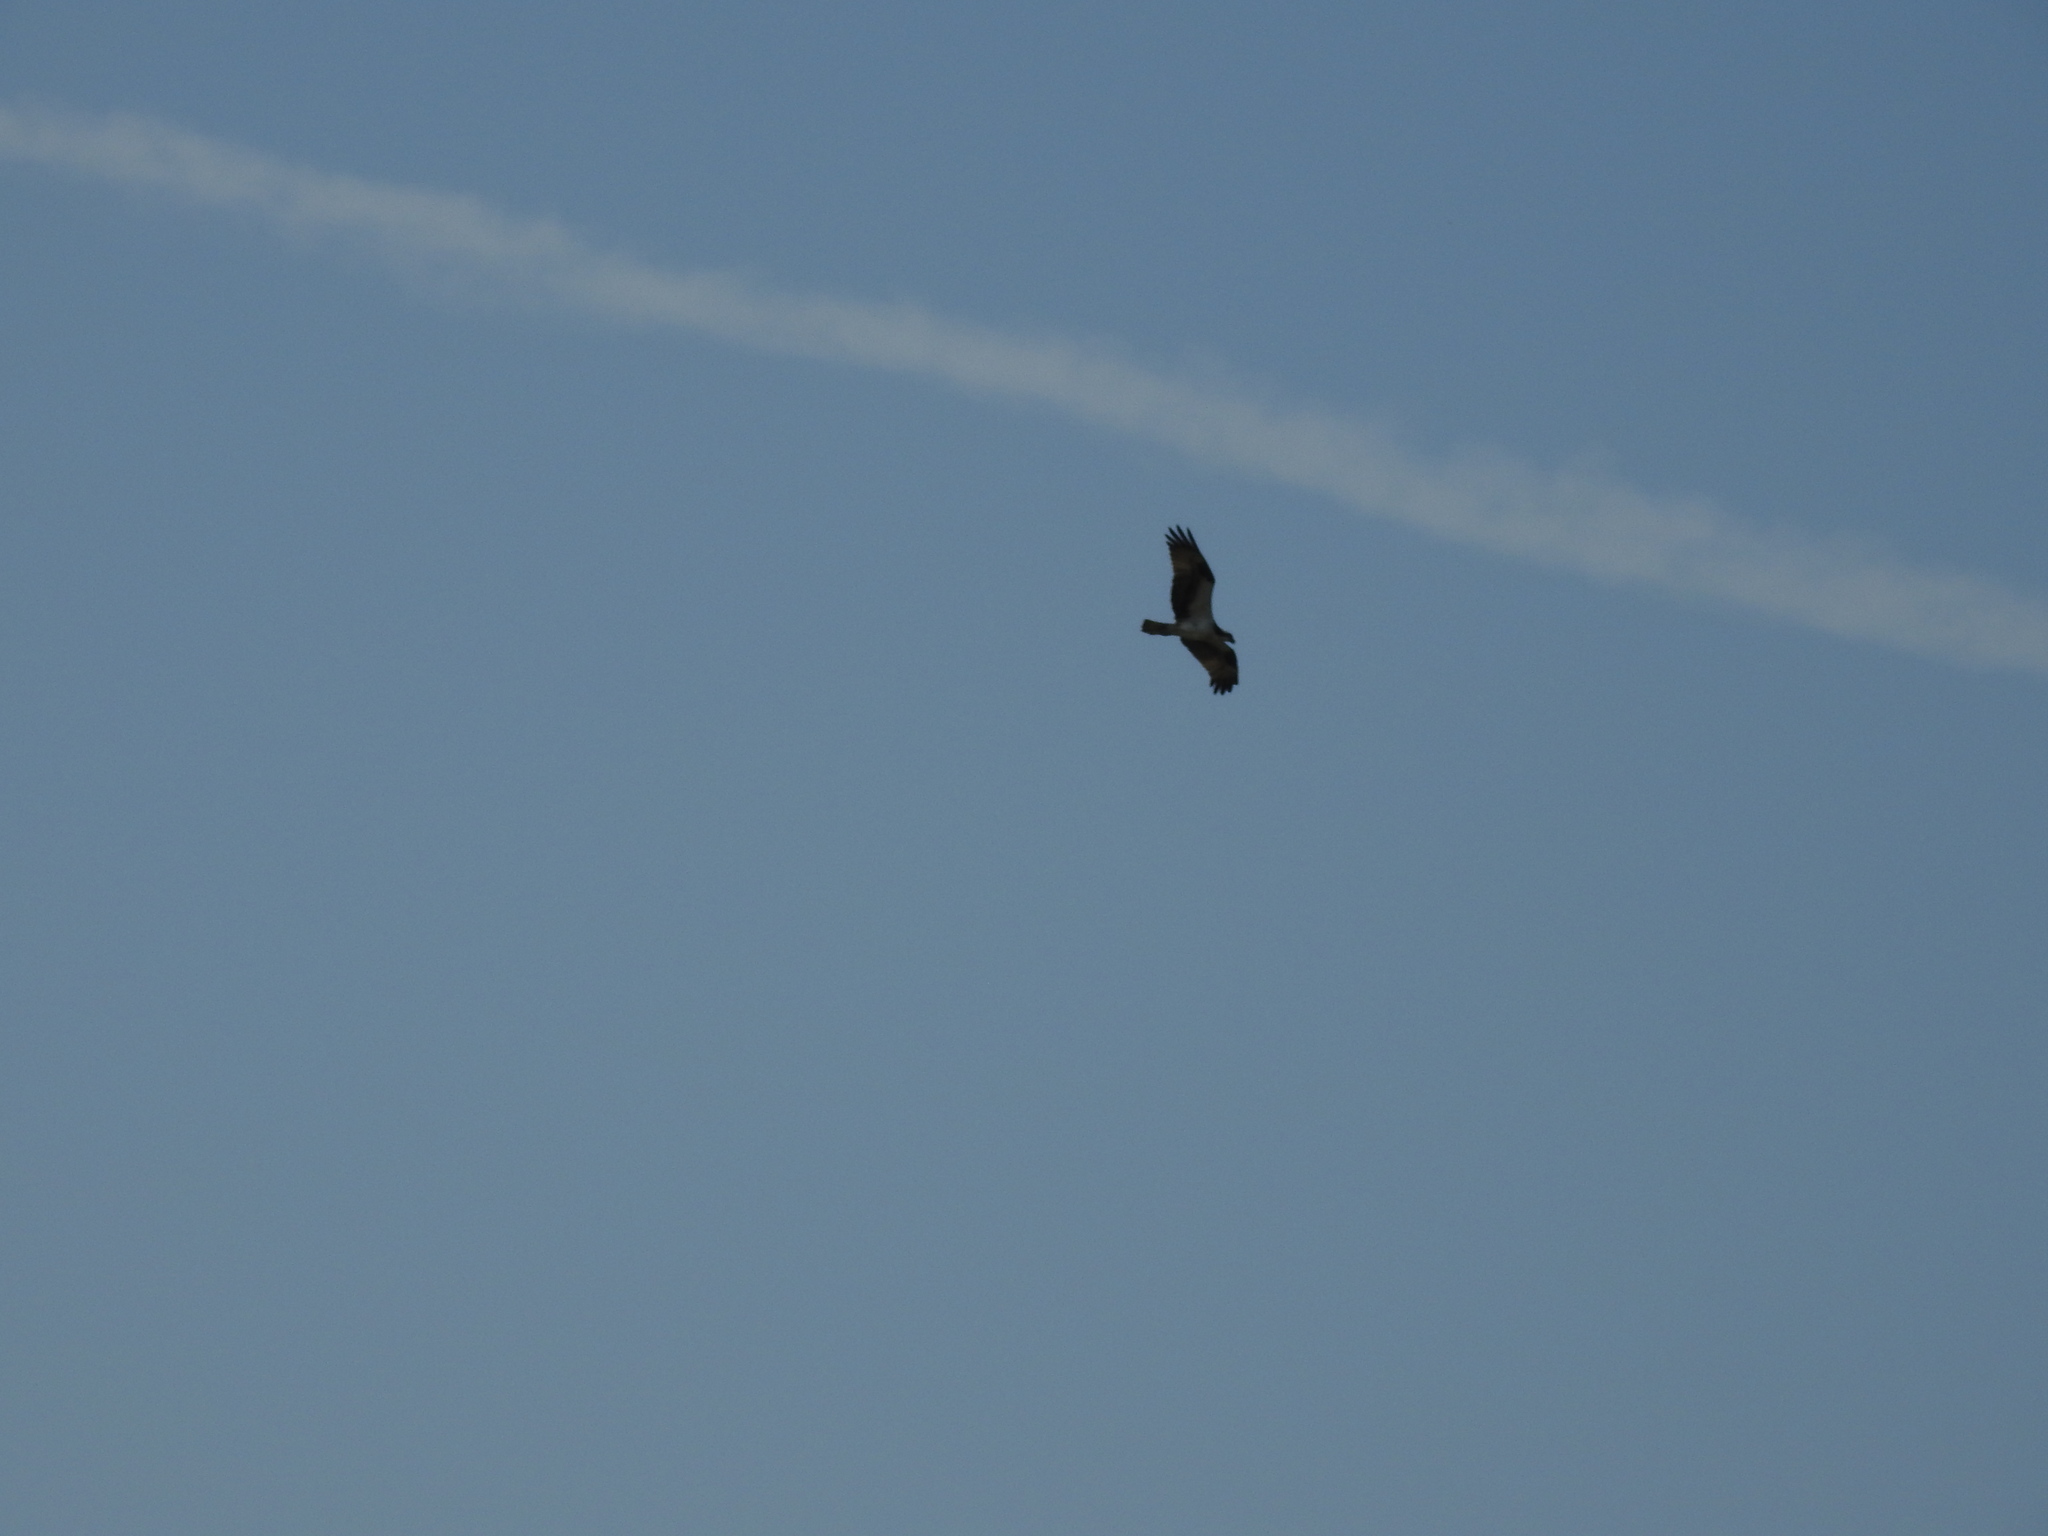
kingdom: Animalia
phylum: Chordata
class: Aves
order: Accipitriformes
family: Pandionidae
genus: Pandion
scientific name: Pandion haliaetus
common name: Osprey
